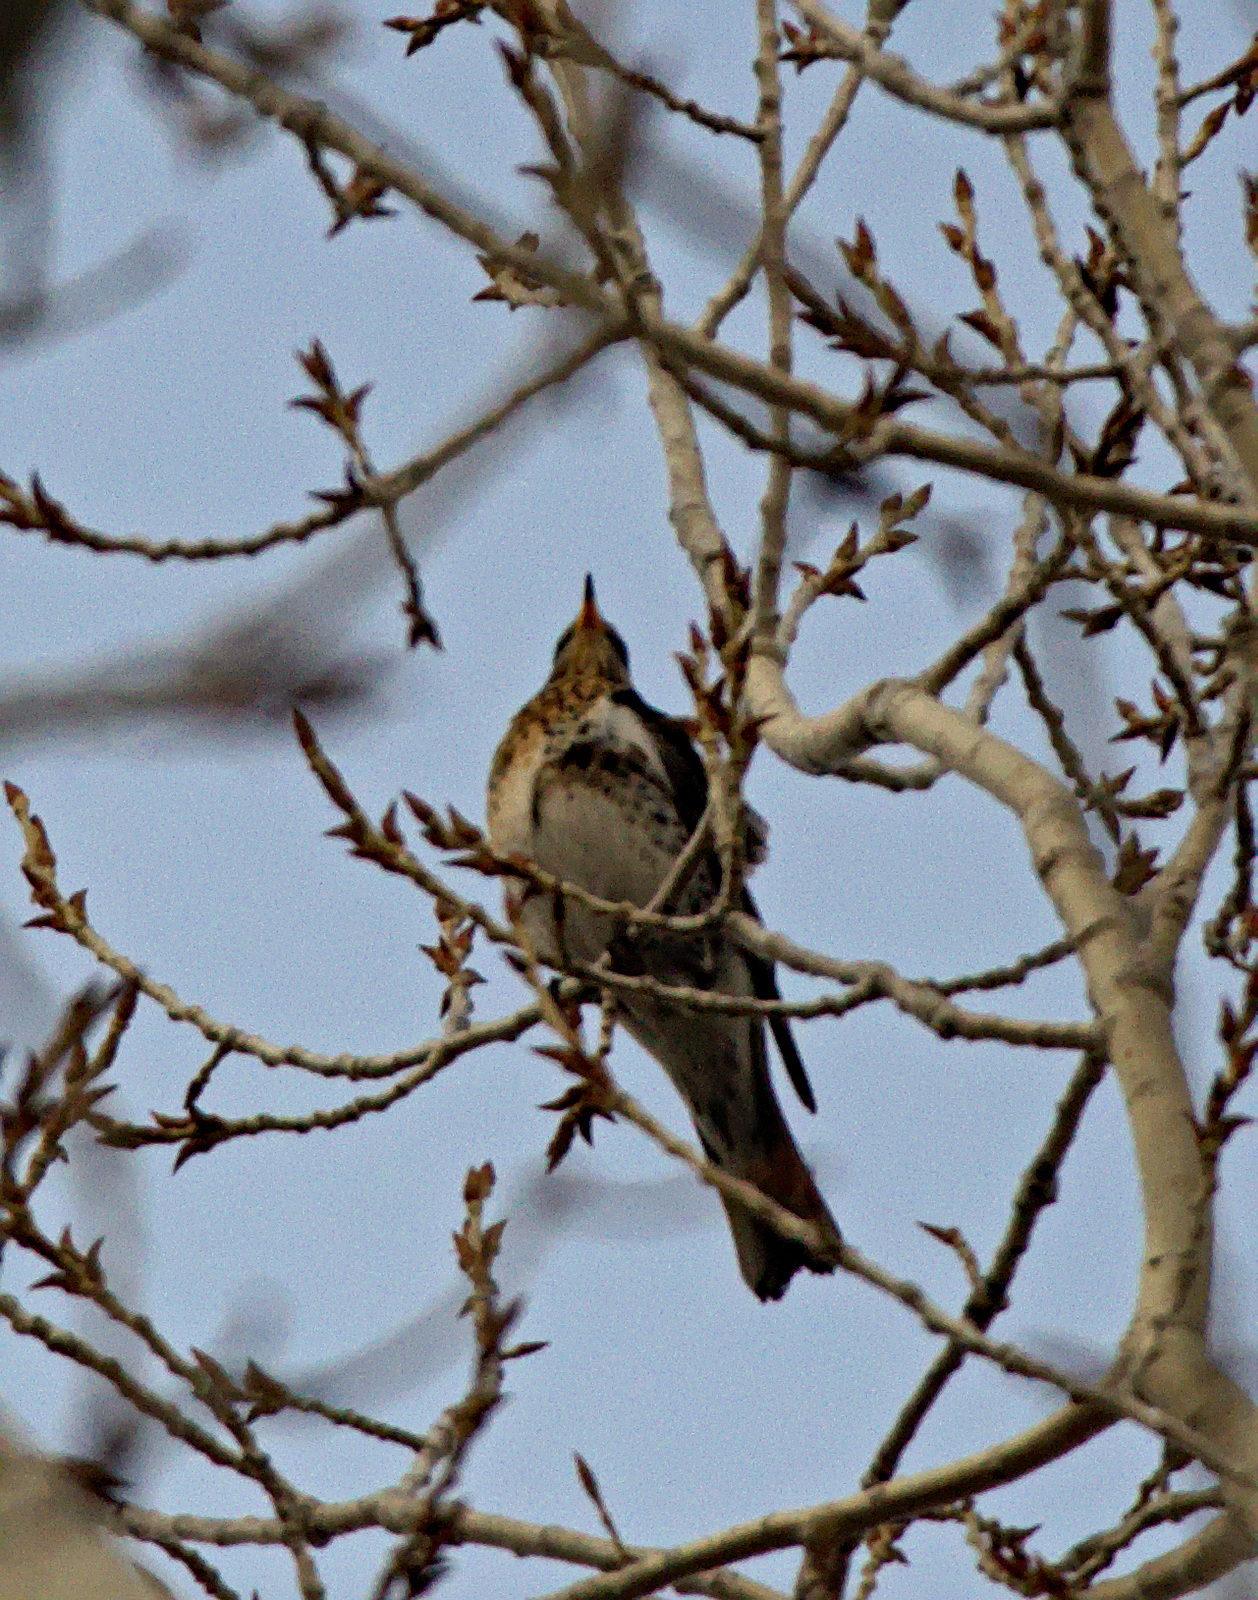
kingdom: Animalia
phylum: Chordata
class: Aves
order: Passeriformes
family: Turdidae
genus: Turdus
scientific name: Turdus pilaris
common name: Fieldfare
